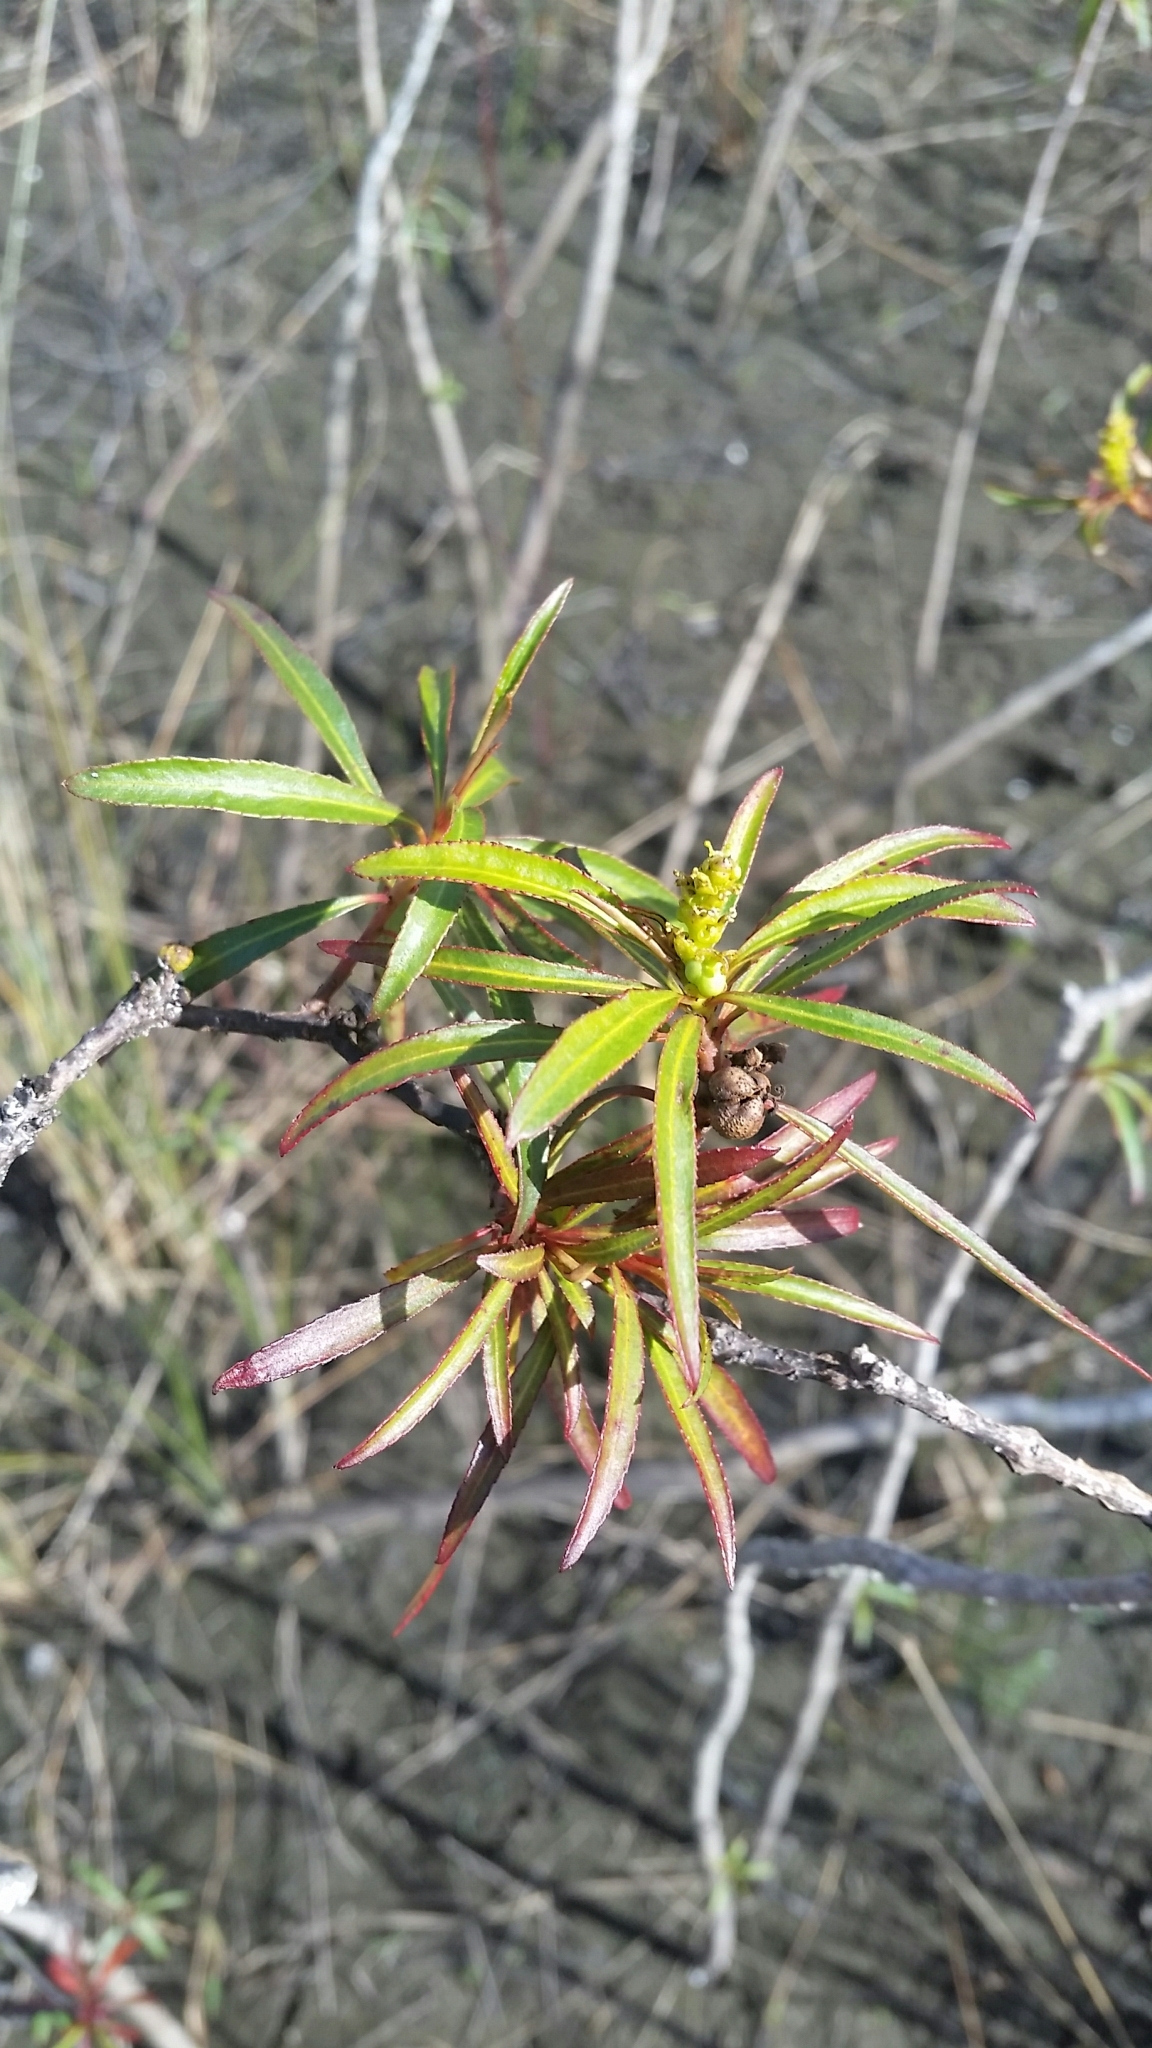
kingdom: Plantae
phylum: Tracheophyta
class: Magnoliopsida
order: Malpighiales
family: Euphorbiaceae
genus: Stillingia
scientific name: Stillingia aquatica
